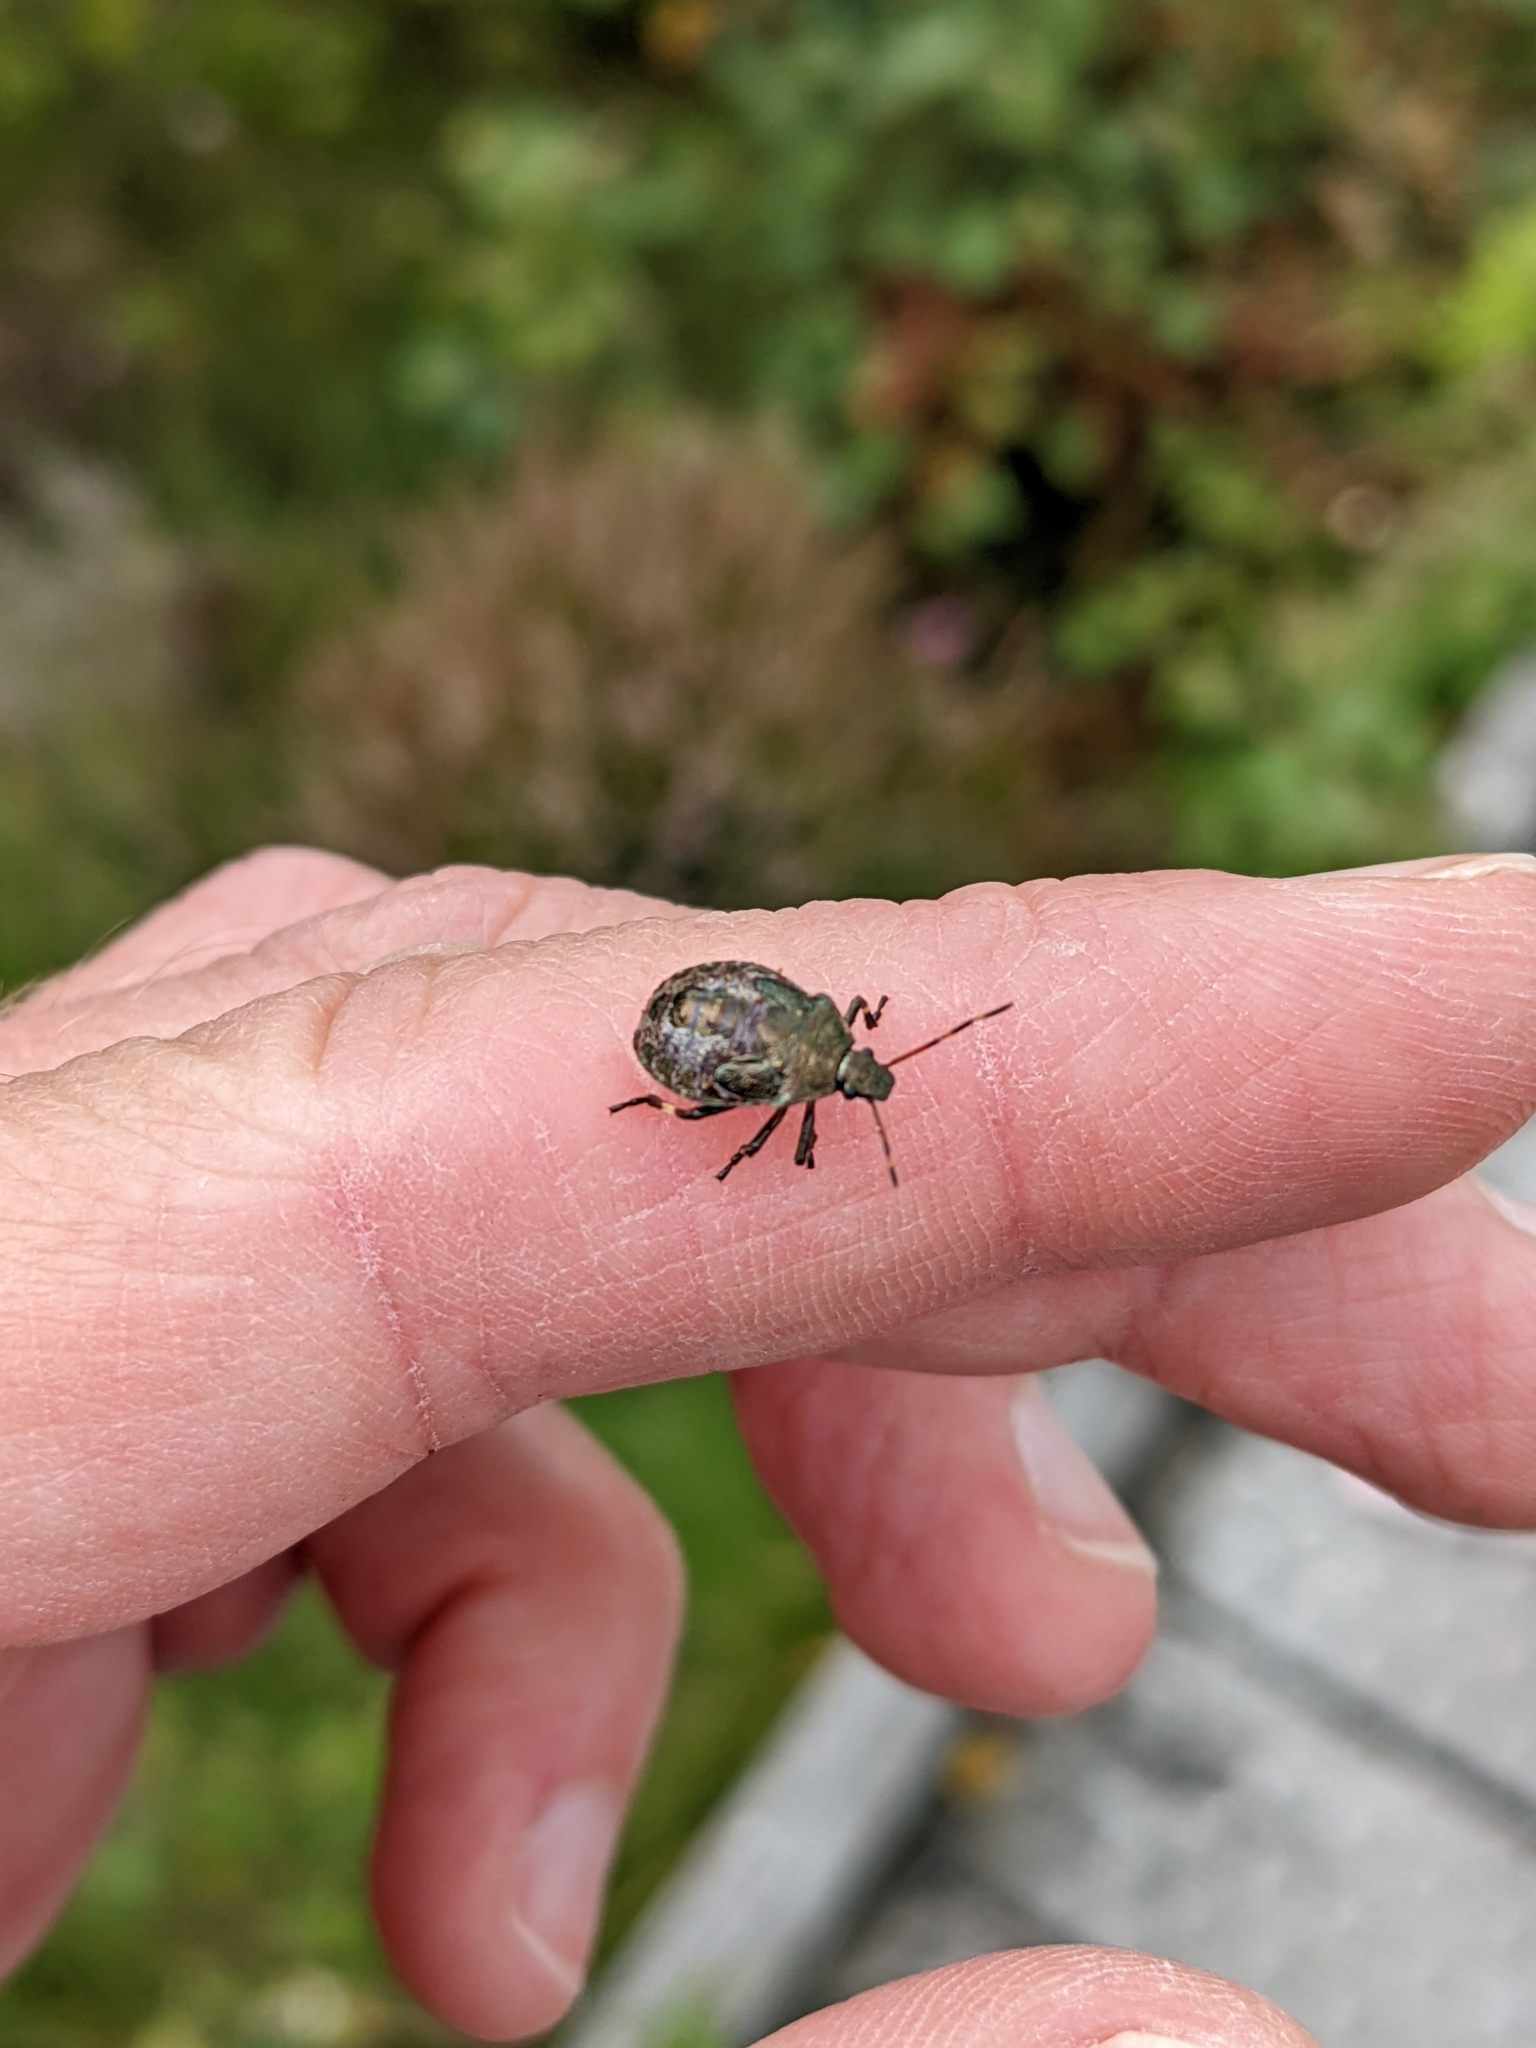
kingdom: Animalia
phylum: Arthropoda
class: Insecta
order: Hemiptera
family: Pentatomidae
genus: Picromerus
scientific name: Picromerus bidens
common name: Spiked shieldbug
